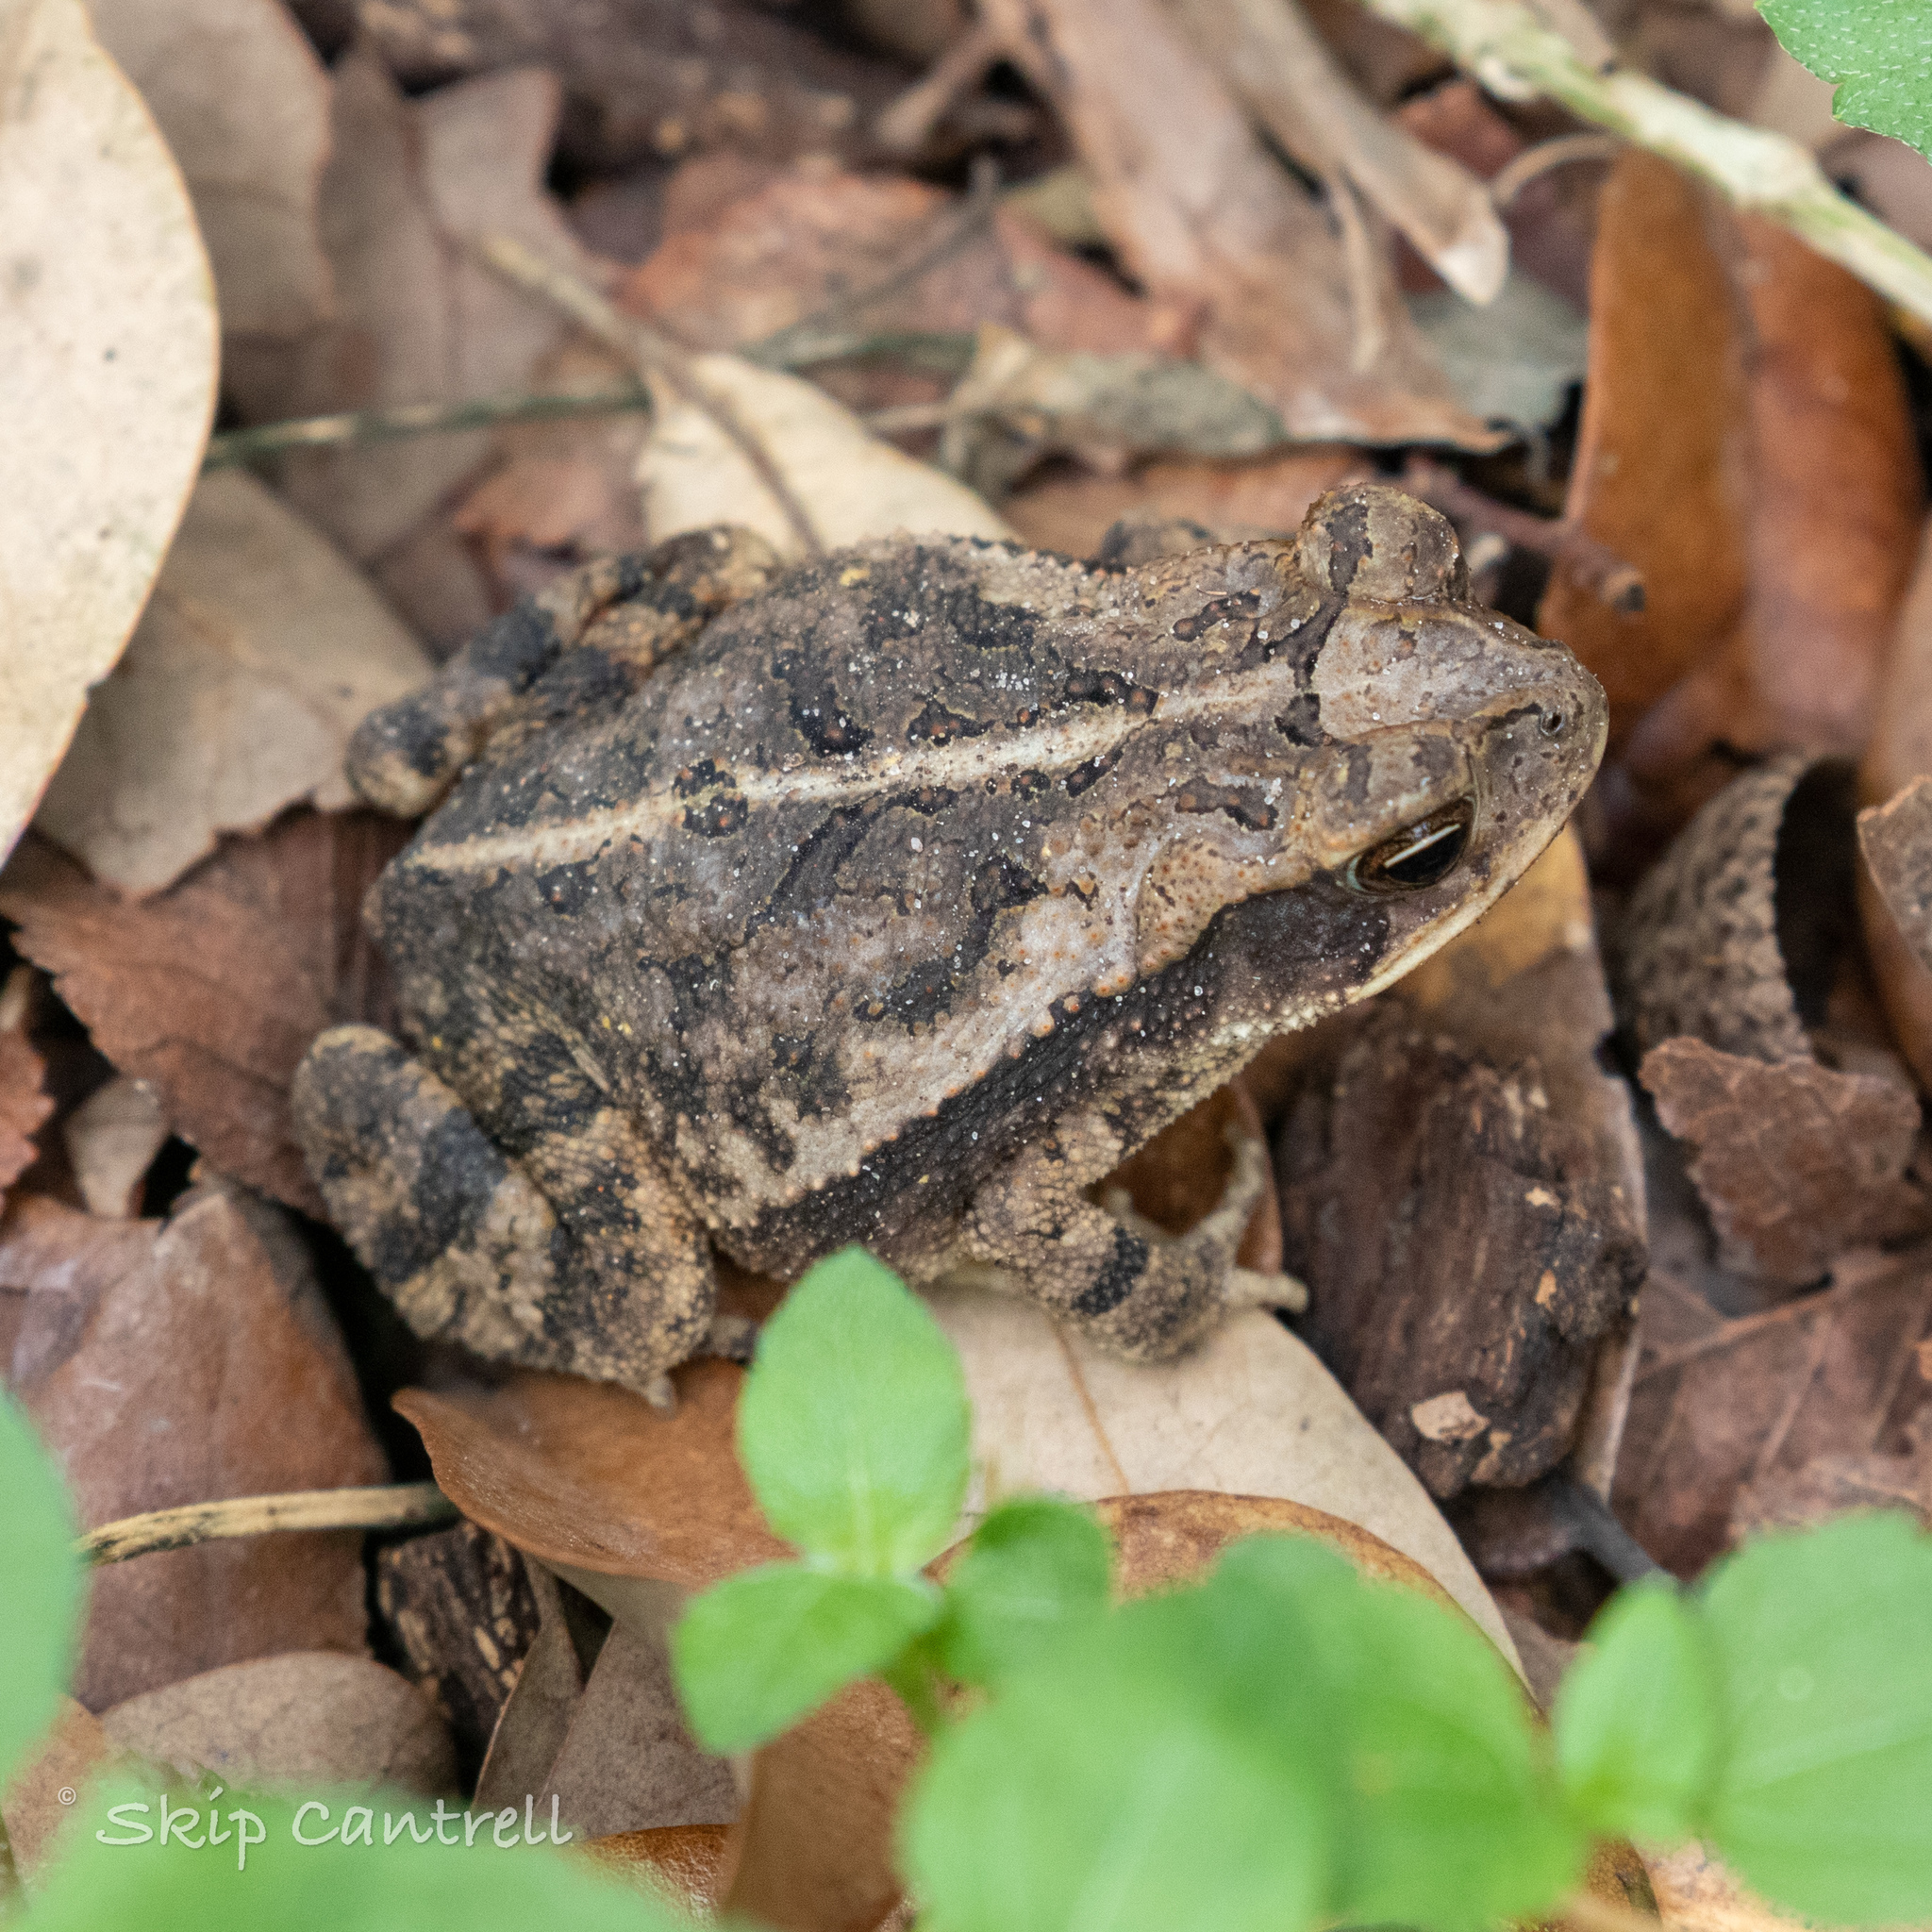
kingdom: Animalia
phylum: Chordata
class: Amphibia
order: Anura
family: Bufonidae
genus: Incilius
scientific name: Incilius nebulifer
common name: Gulf coast toad
